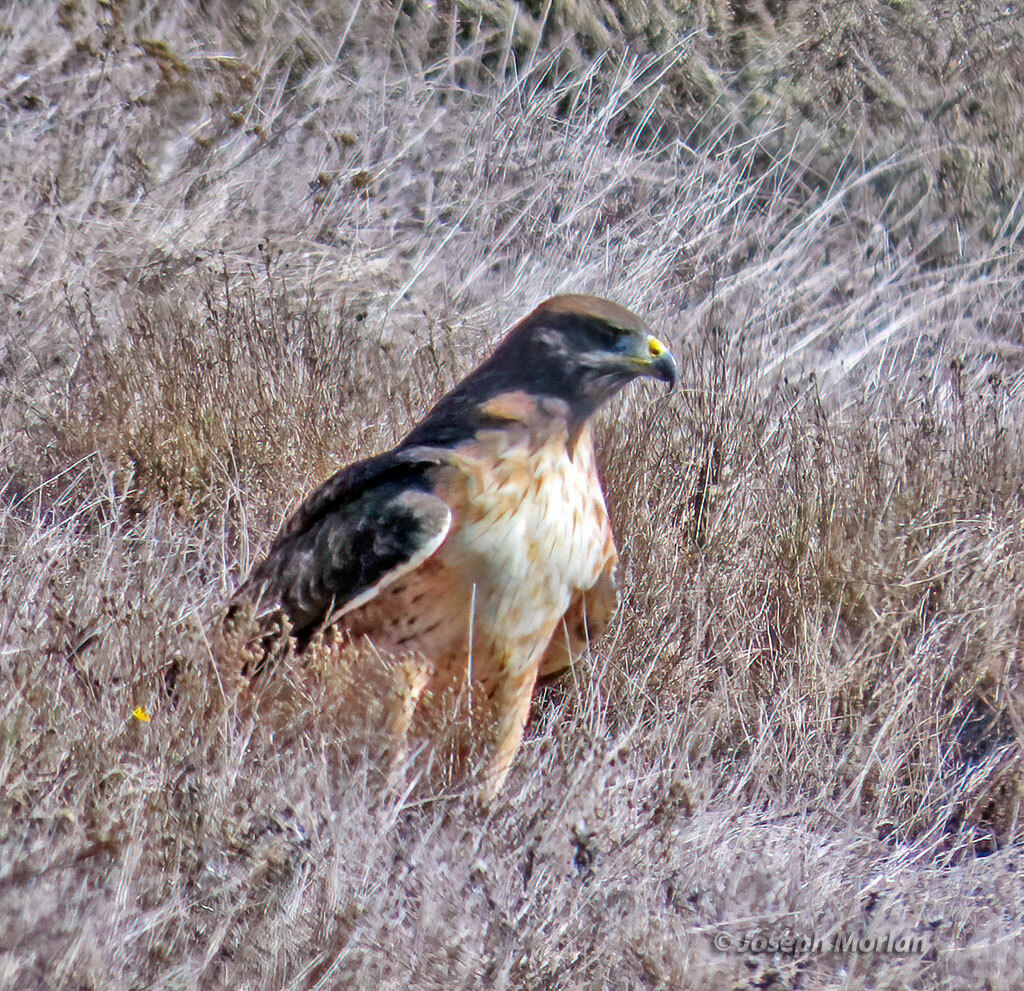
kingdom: Animalia
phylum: Chordata
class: Aves
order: Accipitriformes
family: Accipitridae
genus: Buteo
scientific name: Buteo jamaicensis
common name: Red-tailed hawk
